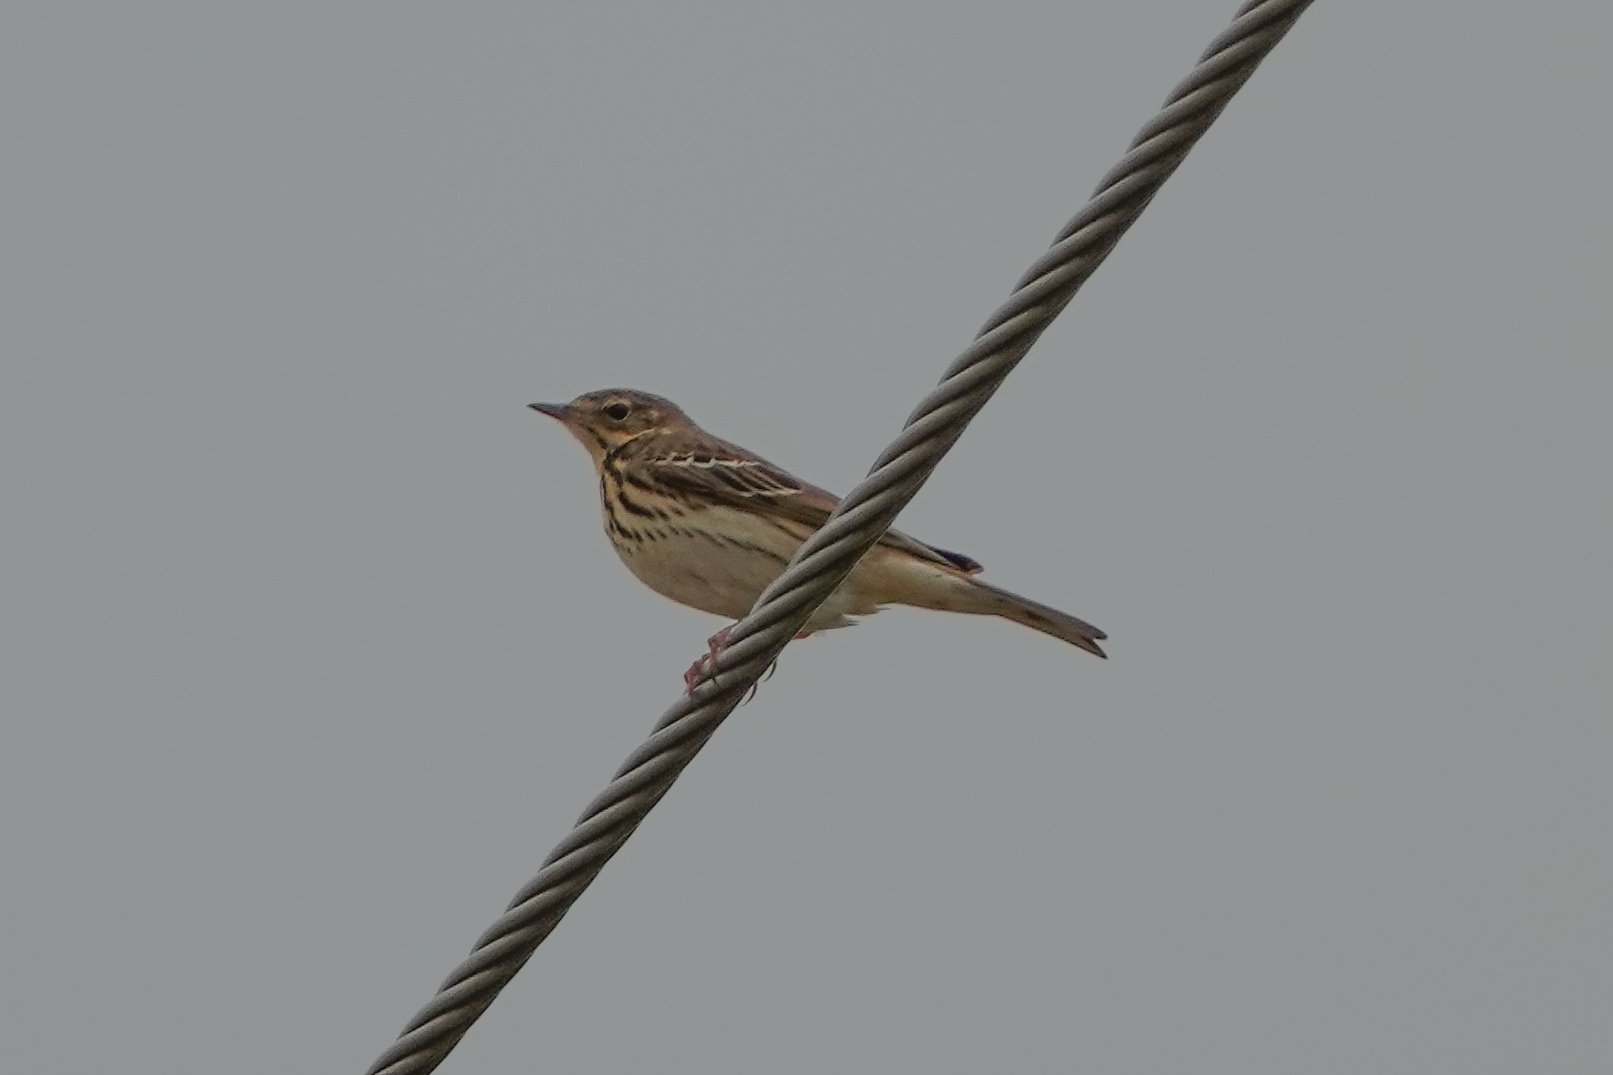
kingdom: Animalia
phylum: Chordata
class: Aves
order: Passeriformes
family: Motacillidae
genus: Anthus
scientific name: Anthus trivialis
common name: Tree pipit
